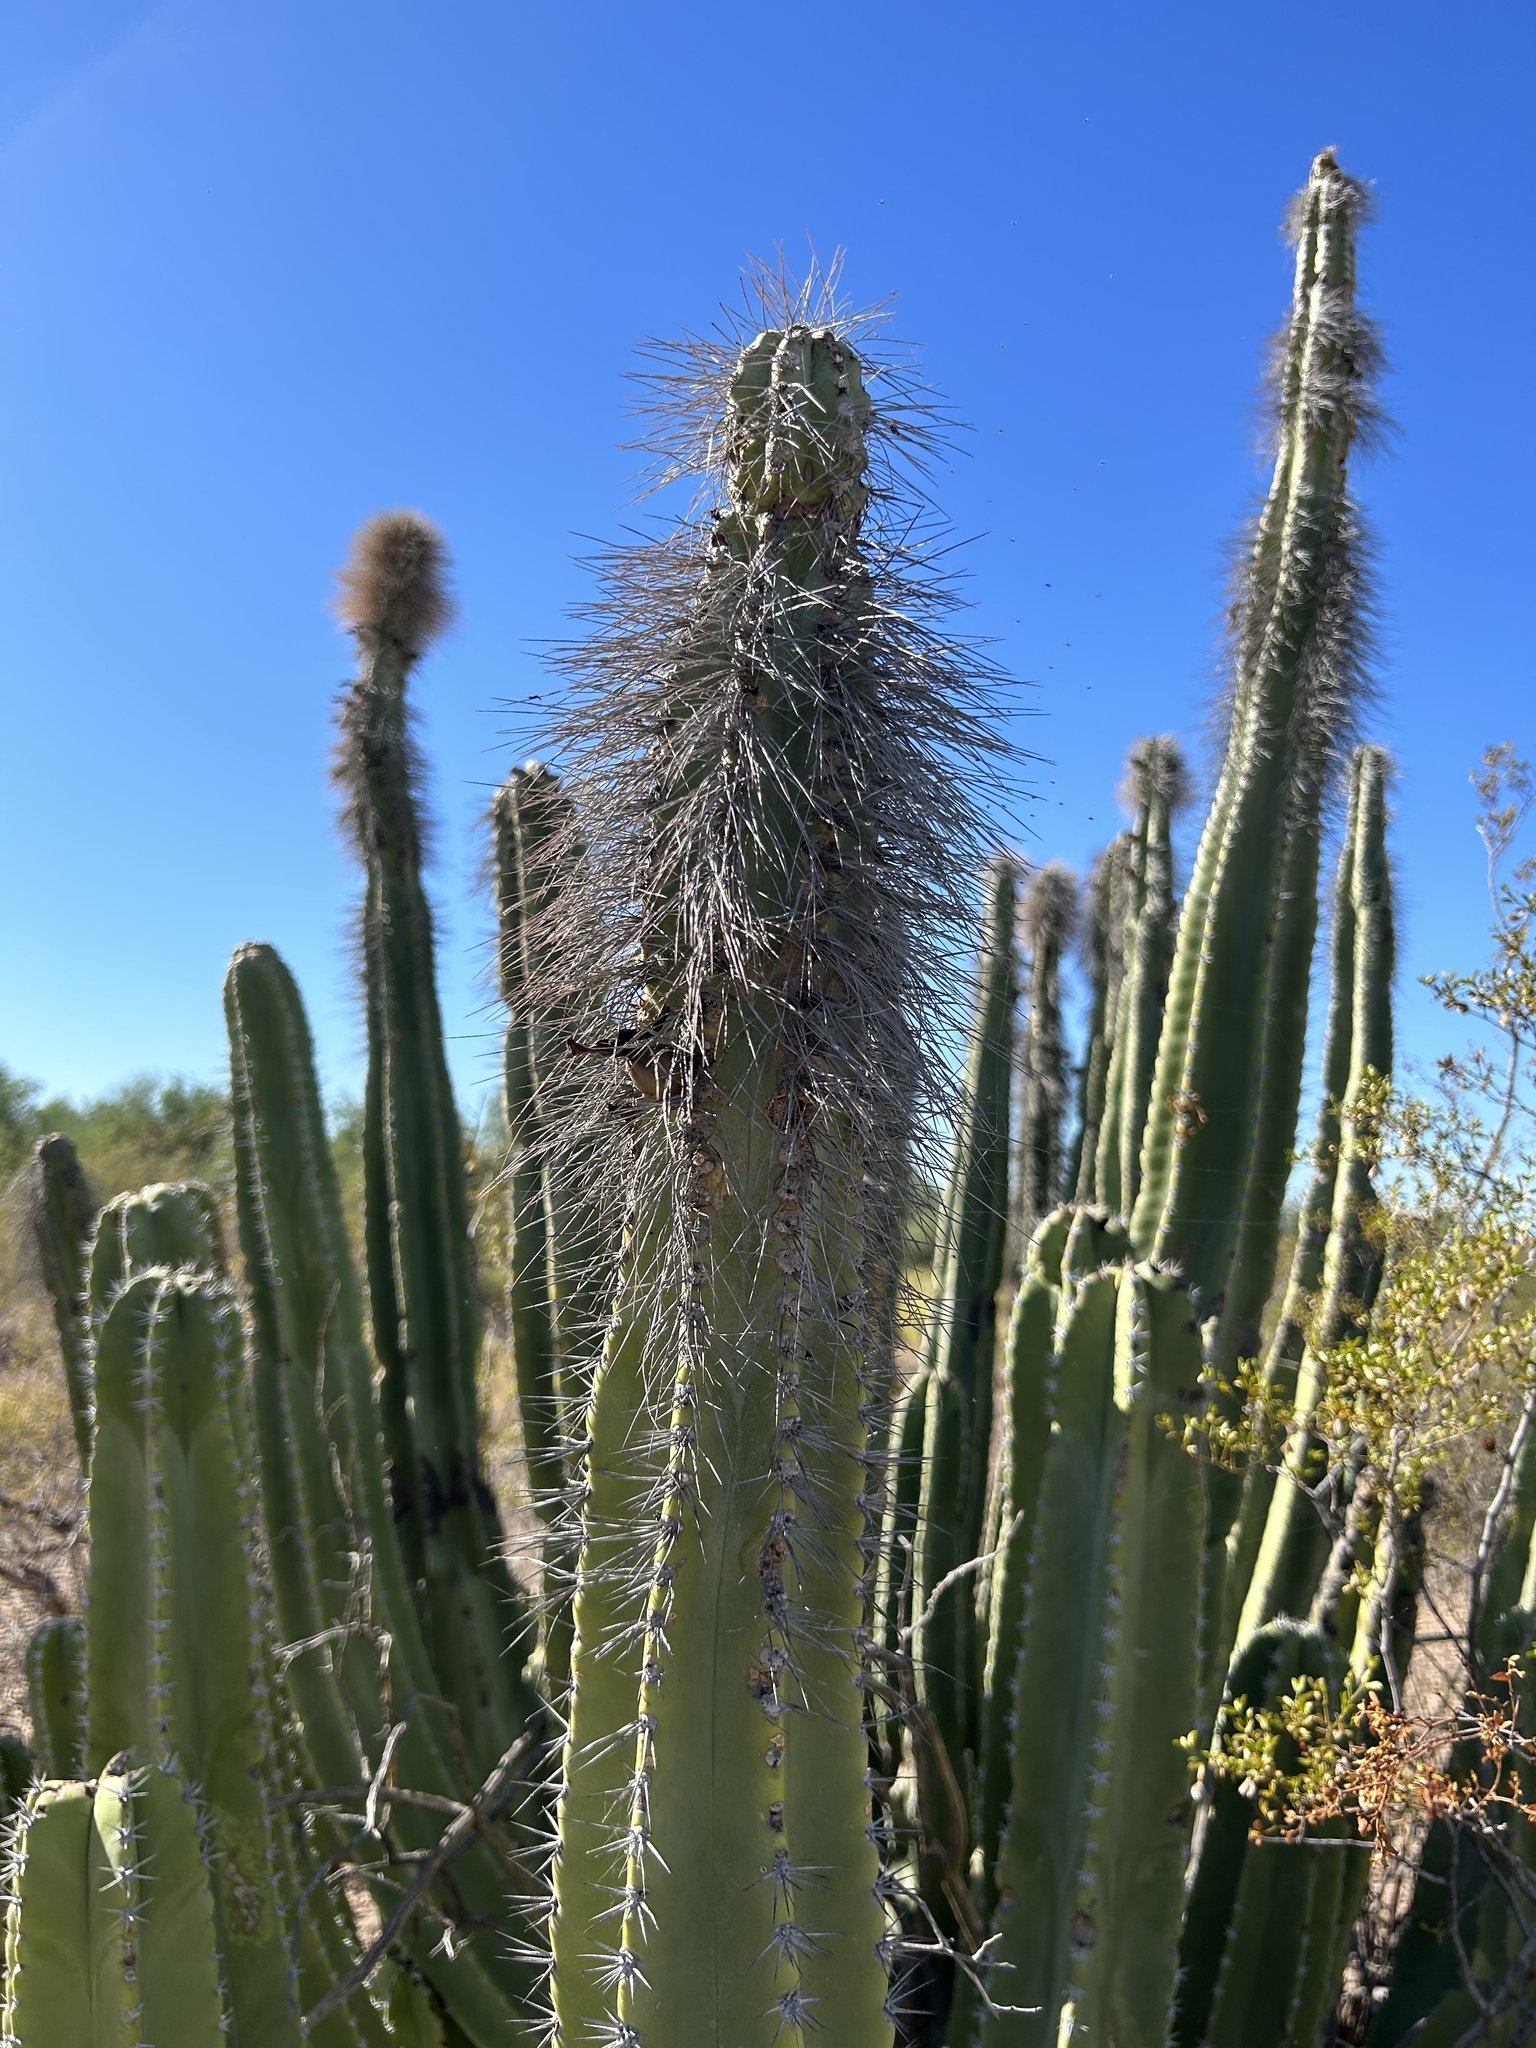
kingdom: Plantae
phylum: Tracheophyta
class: Magnoliopsida
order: Caryophyllales
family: Cactaceae
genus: Pachycereus
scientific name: Pachycereus schottii
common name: Senita cactus
